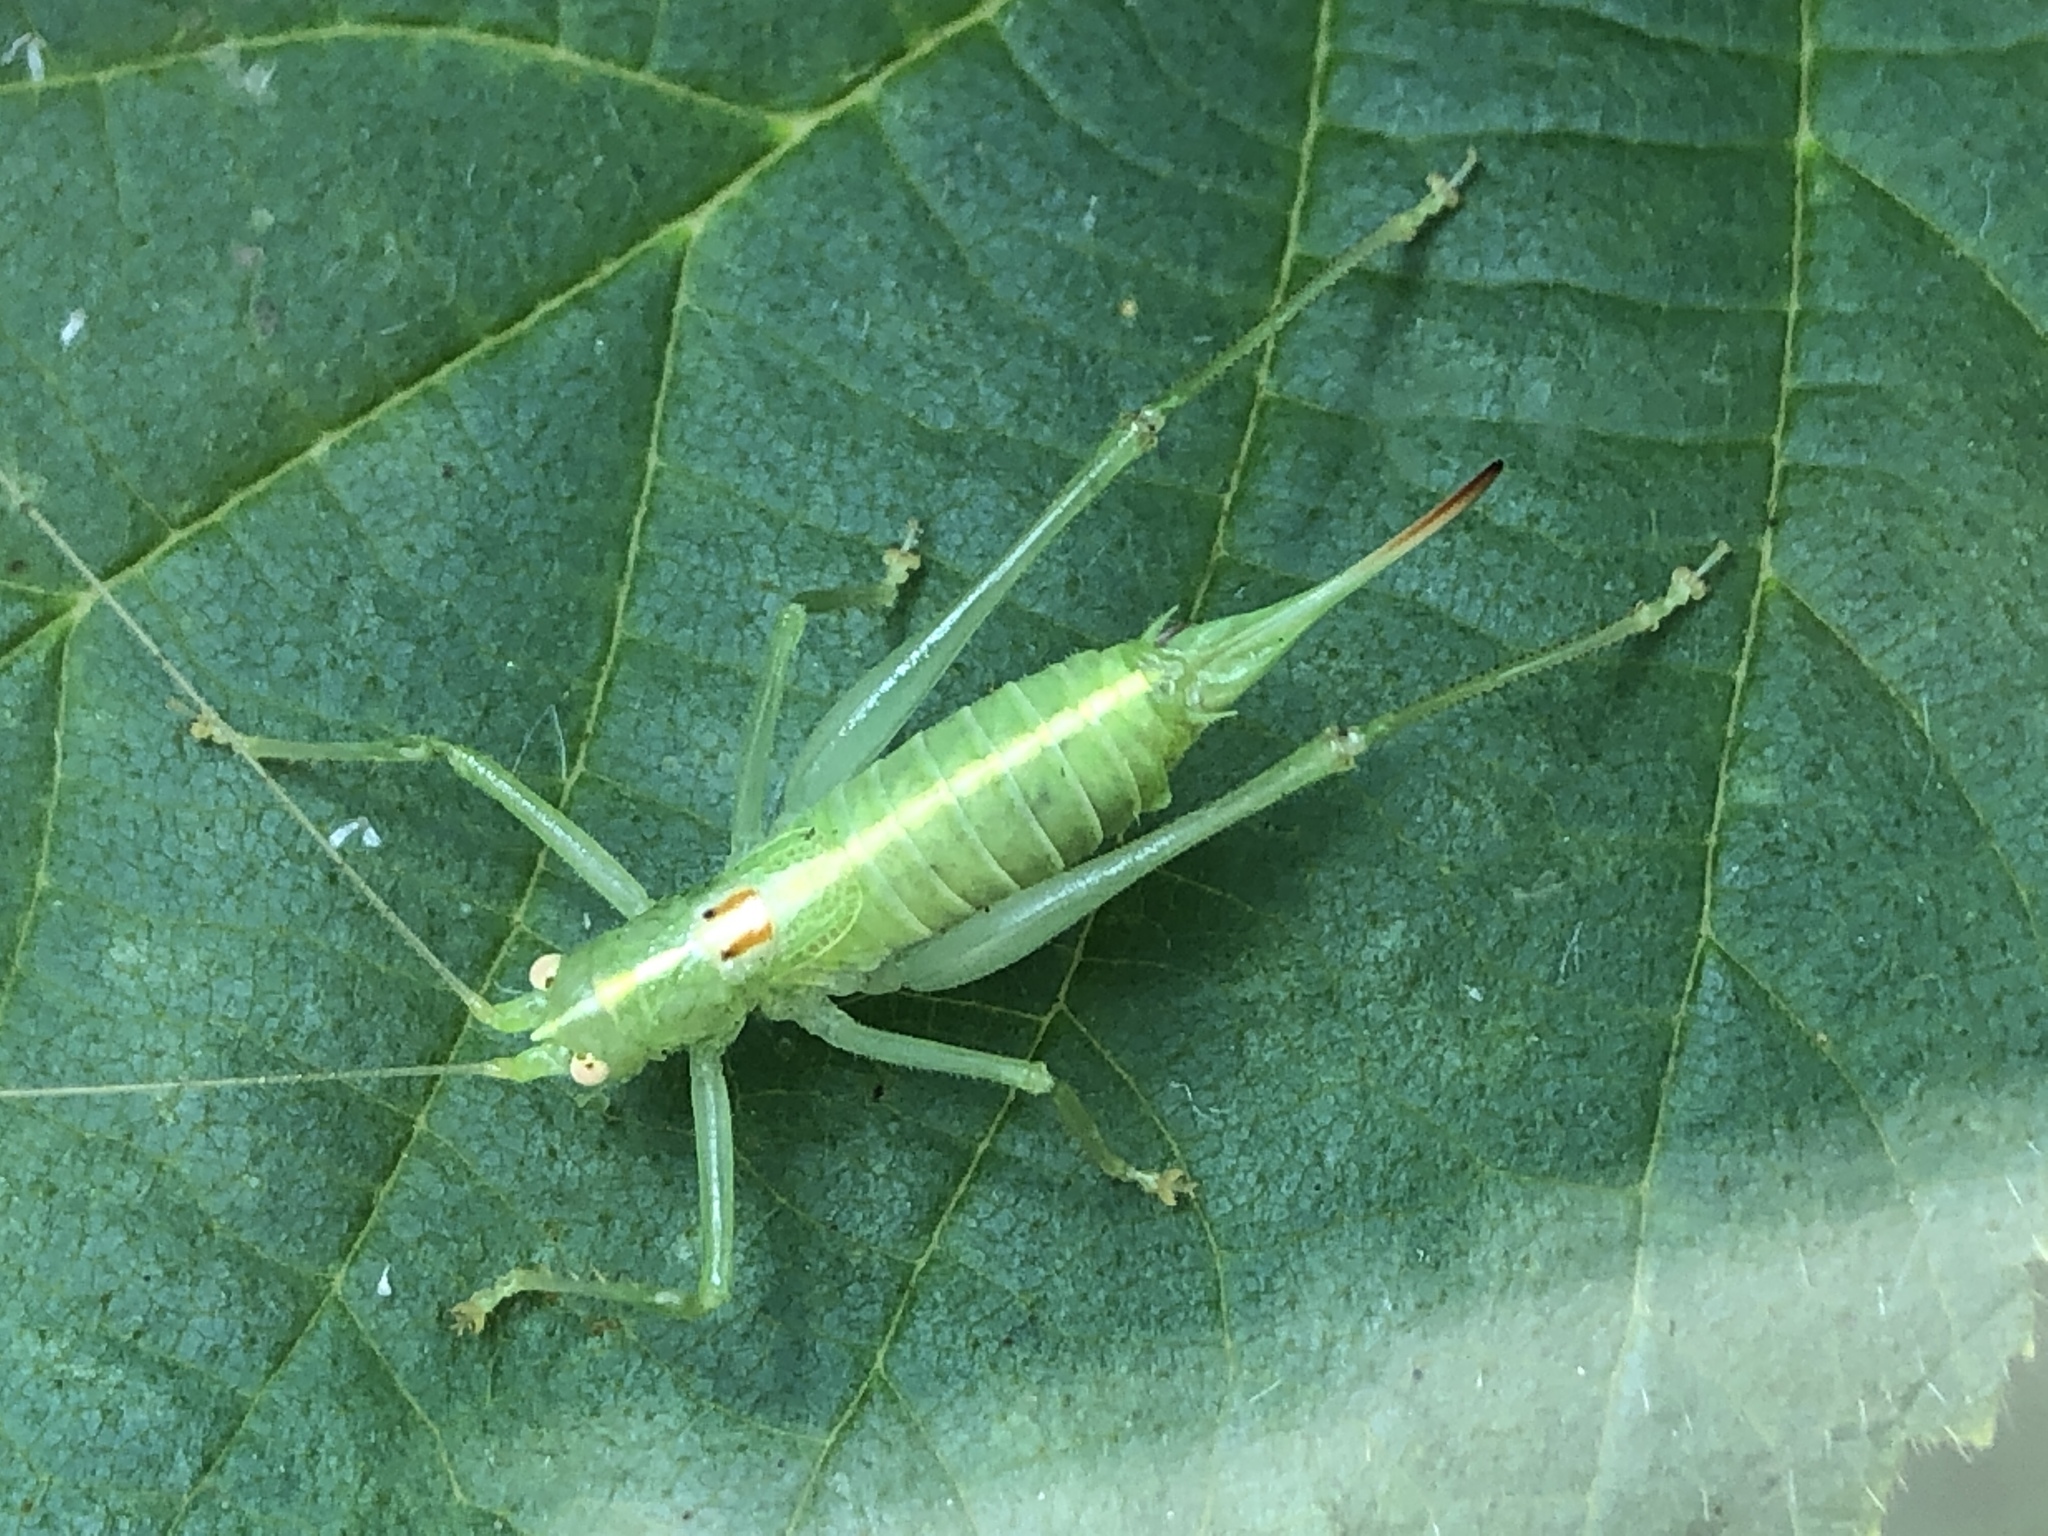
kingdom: Animalia
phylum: Arthropoda
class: Insecta
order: Orthoptera
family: Tettigoniidae
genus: Meconema
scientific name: Meconema meridionale
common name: Southern oak bush-cricket
